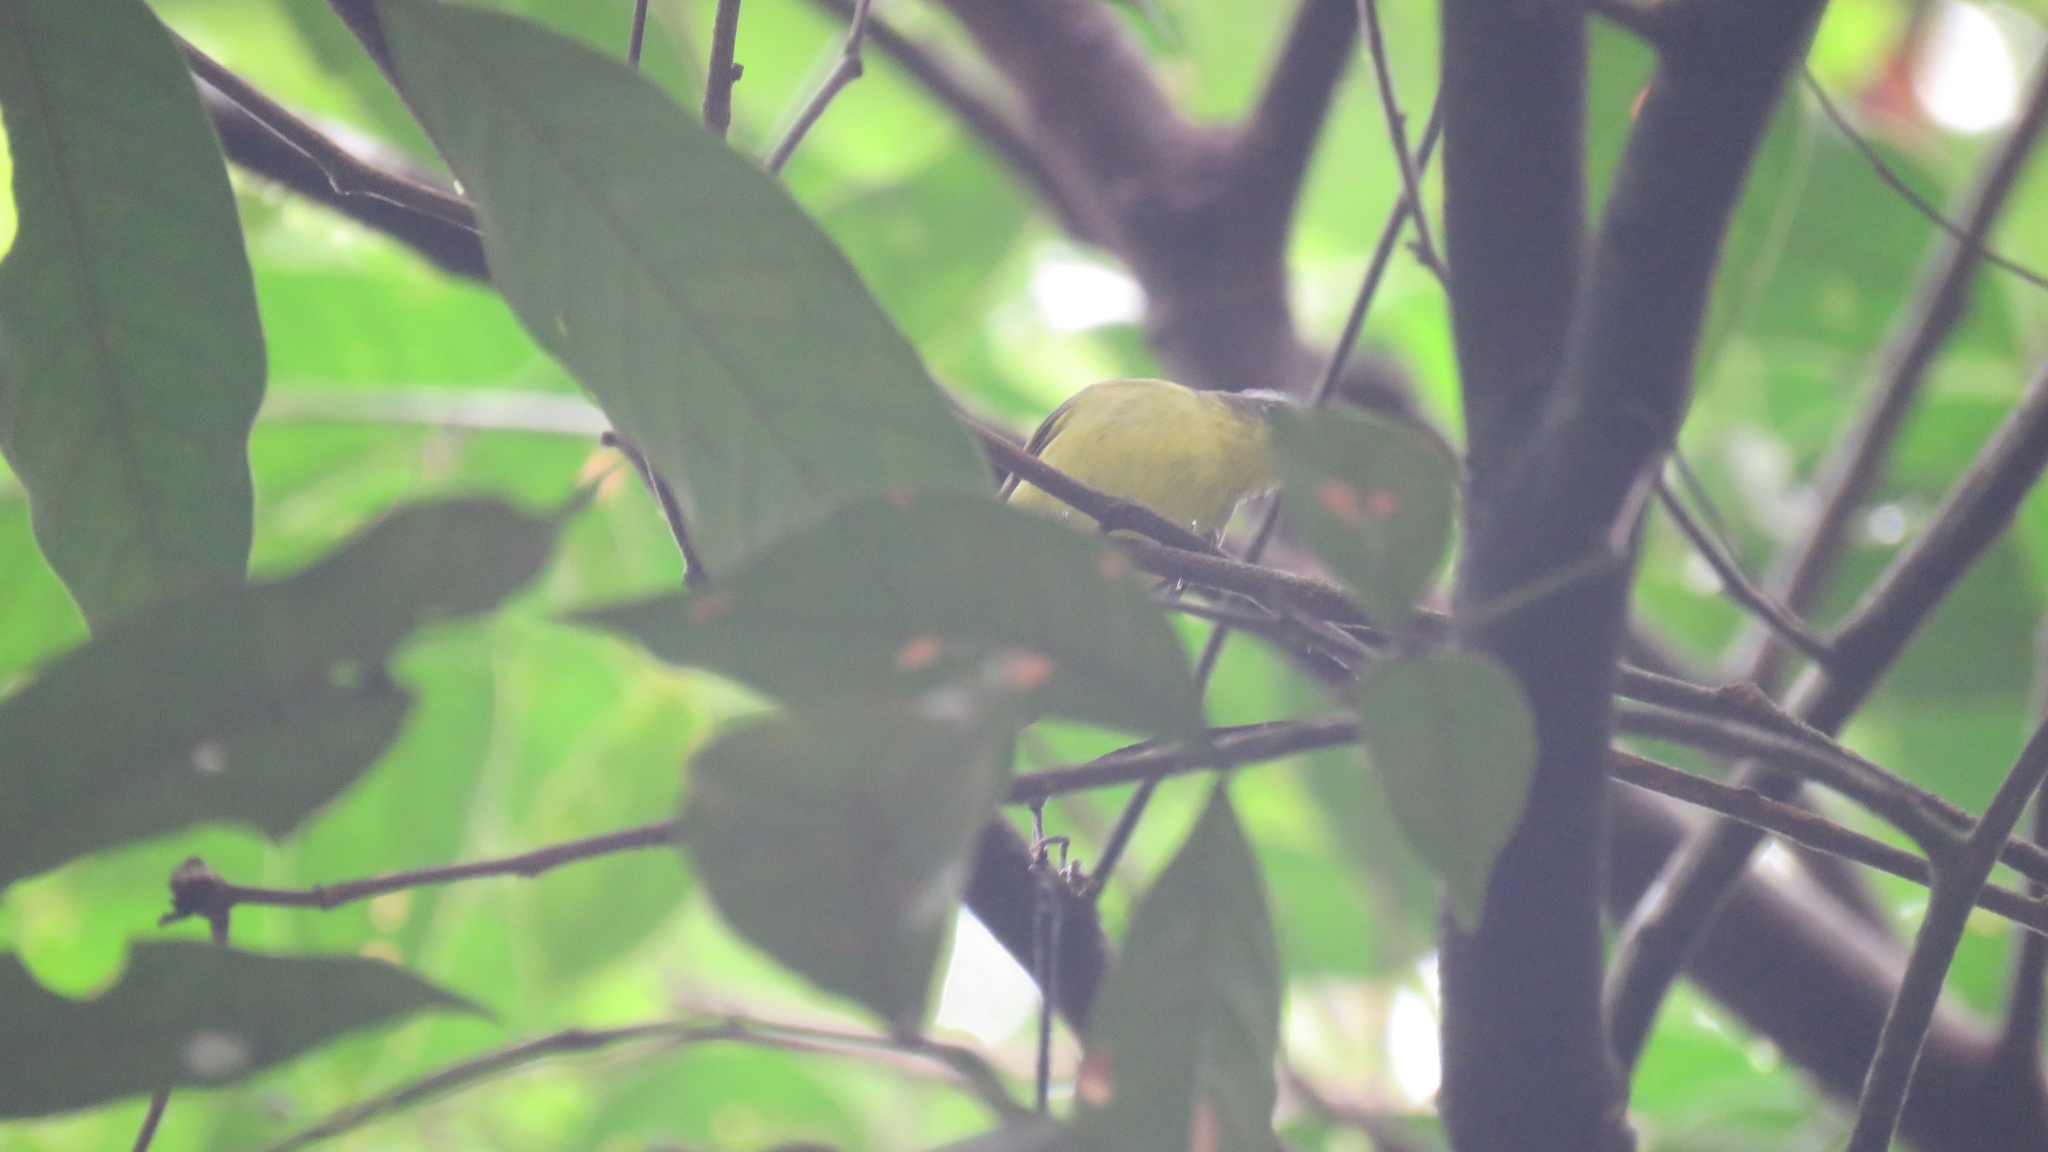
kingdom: Animalia
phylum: Chordata
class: Aves
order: Passeriformes
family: Tyrannidae
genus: Ornithion
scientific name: Ornithion semiflavum
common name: Yellow-bellied tyrannulet
